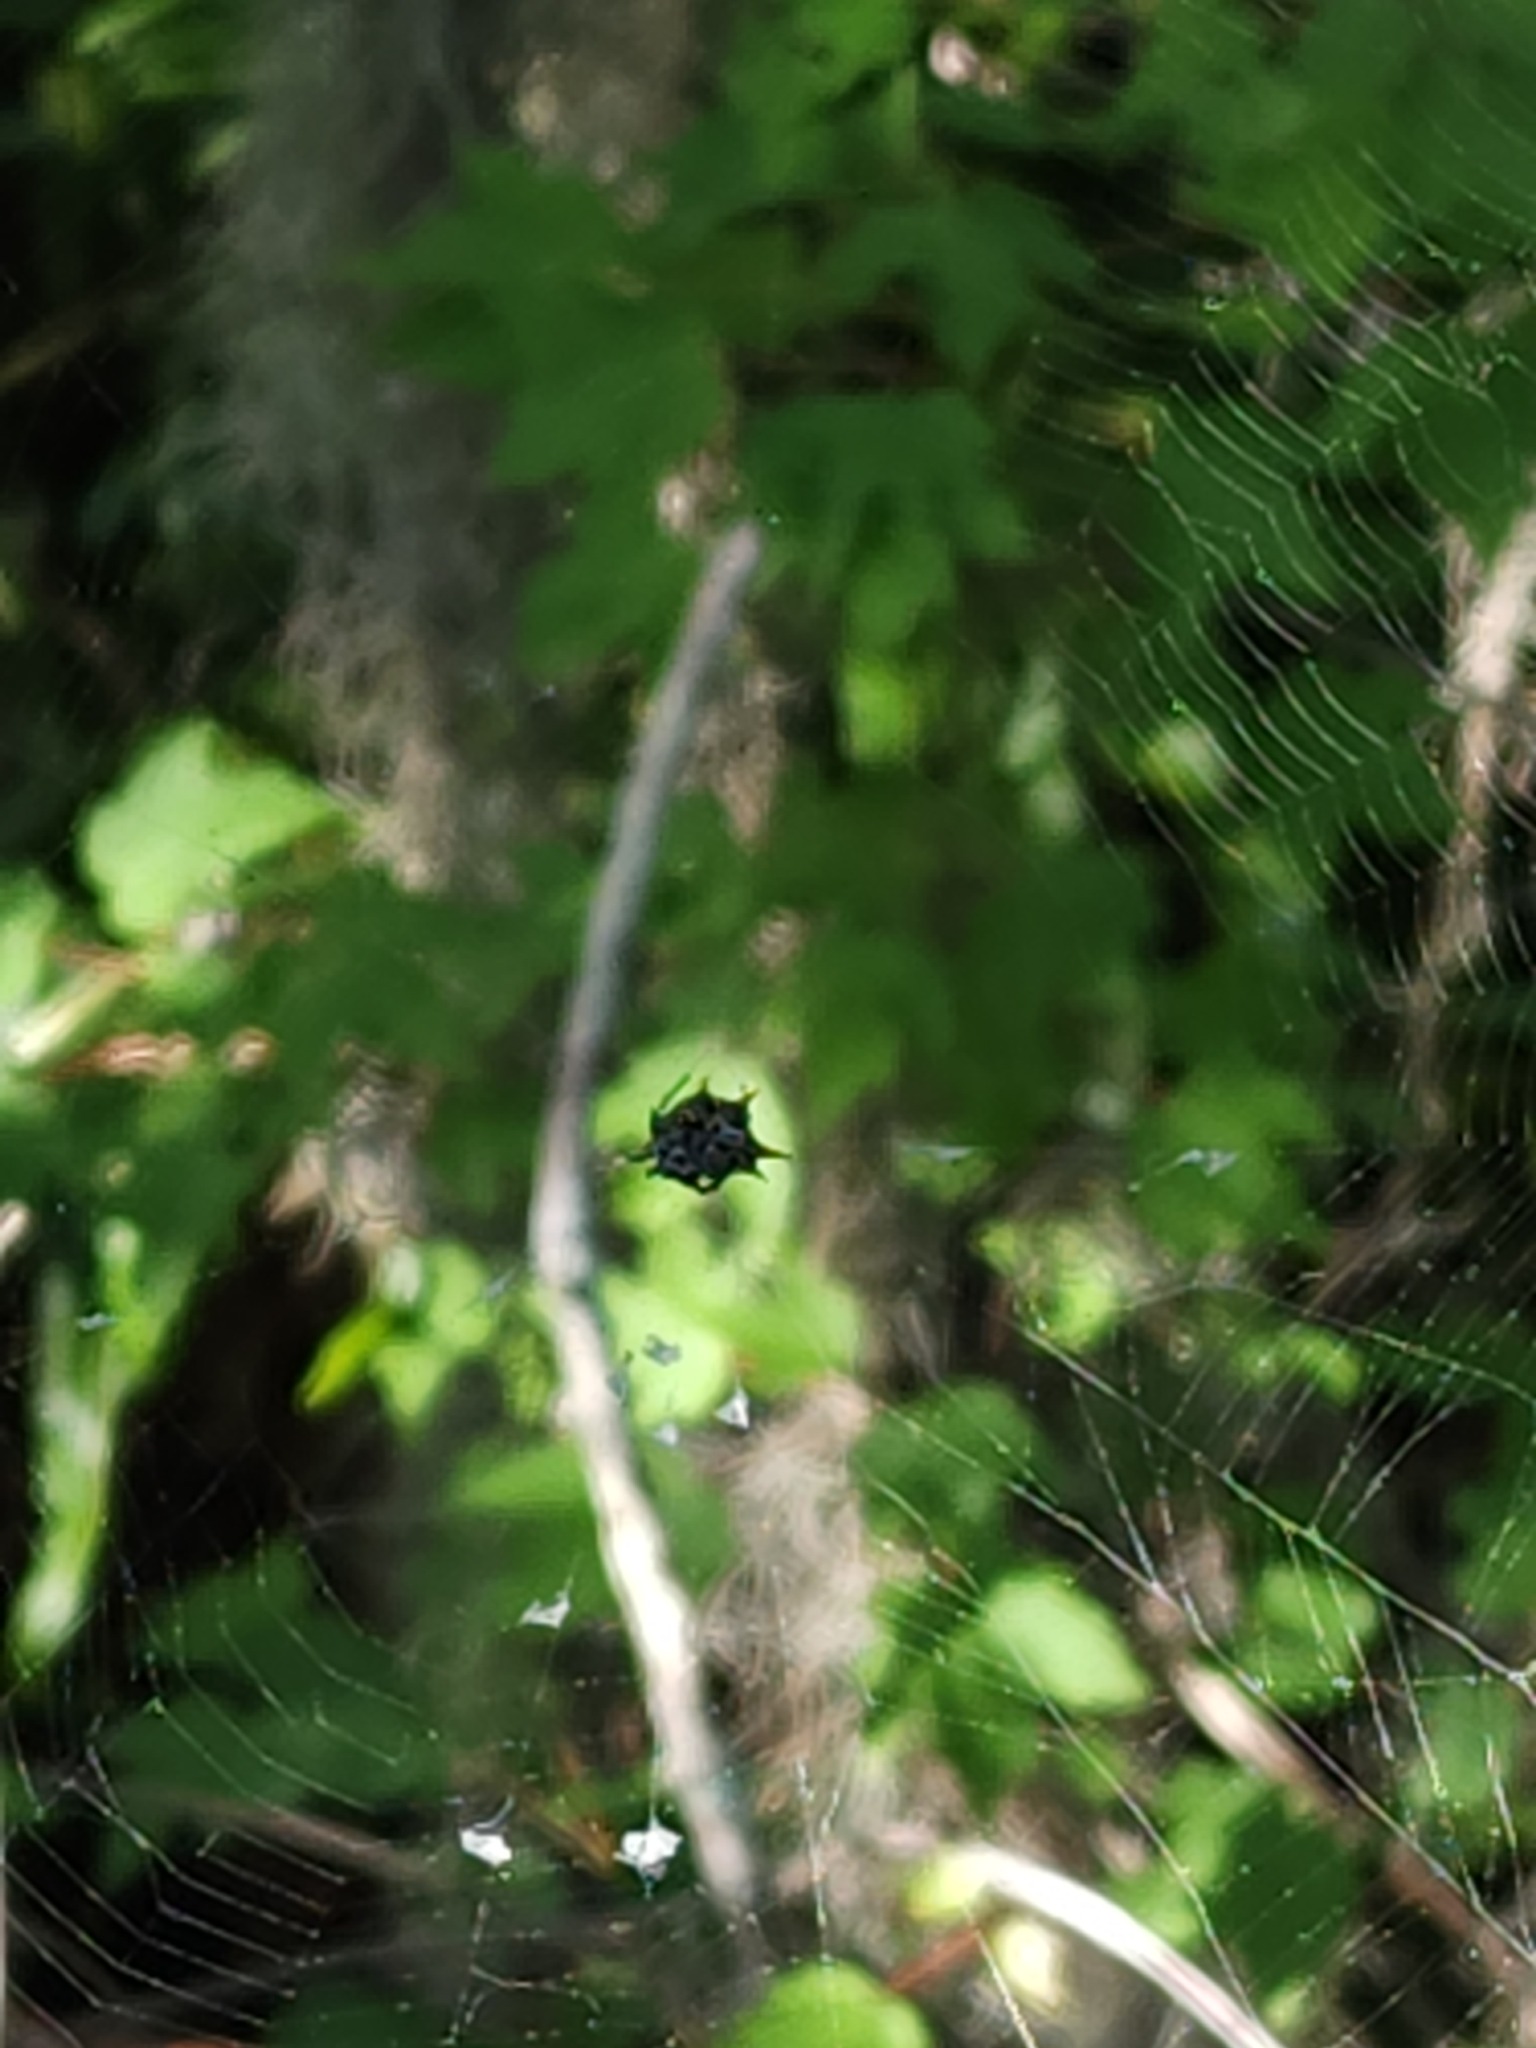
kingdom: Animalia
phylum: Arthropoda
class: Arachnida
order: Araneae
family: Araneidae
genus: Gasteracantha
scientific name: Gasteracantha cancriformis
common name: Orb weavers
